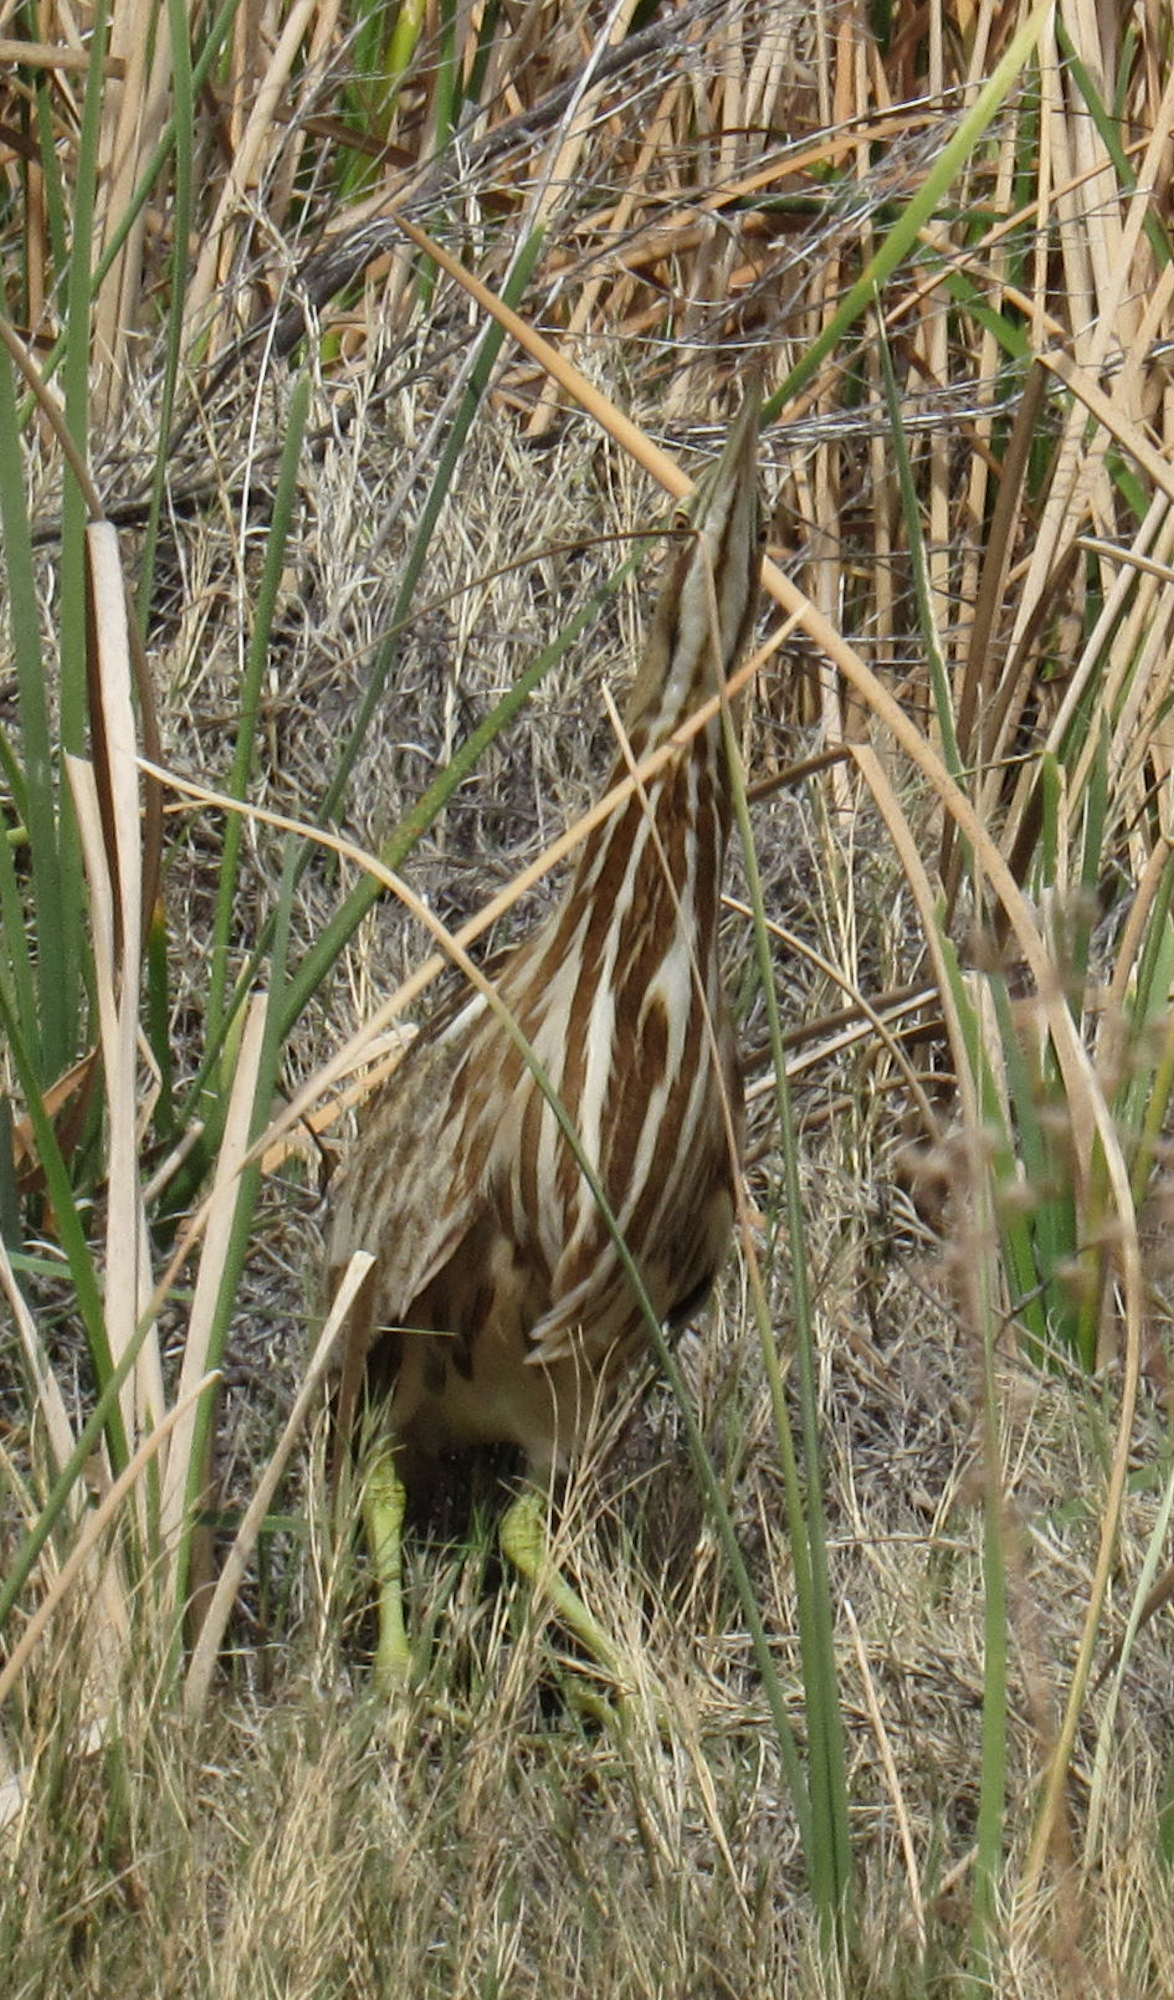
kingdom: Animalia
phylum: Chordata
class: Aves
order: Pelecaniformes
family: Ardeidae
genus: Botaurus
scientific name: Botaurus lentiginosus
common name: American bittern
